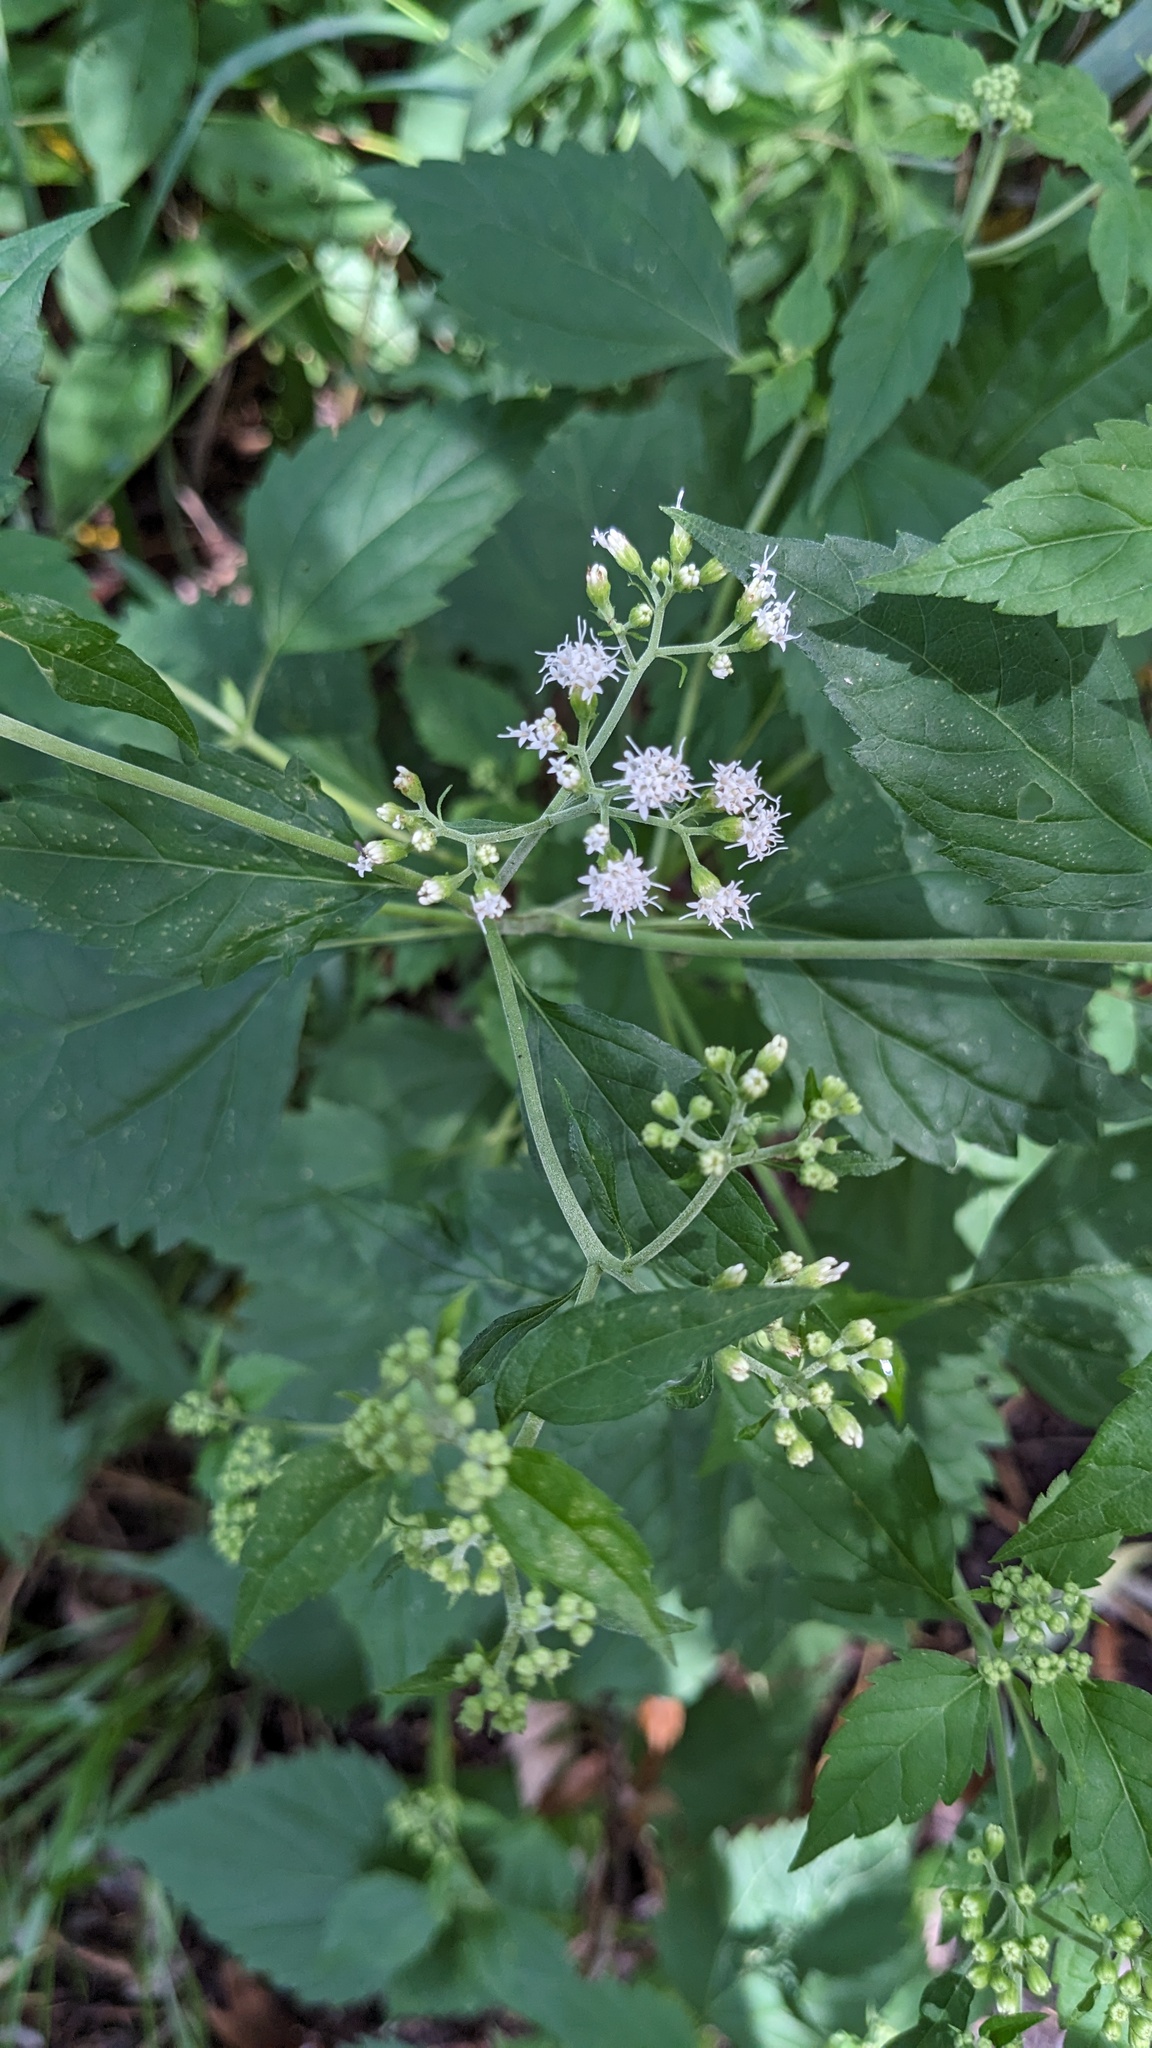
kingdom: Plantae
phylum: Tracheophyta
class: Magnoliopsida
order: Asterales
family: Asteraceae
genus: Ageratina
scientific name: Ageratina altissima
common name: White snakeroot
